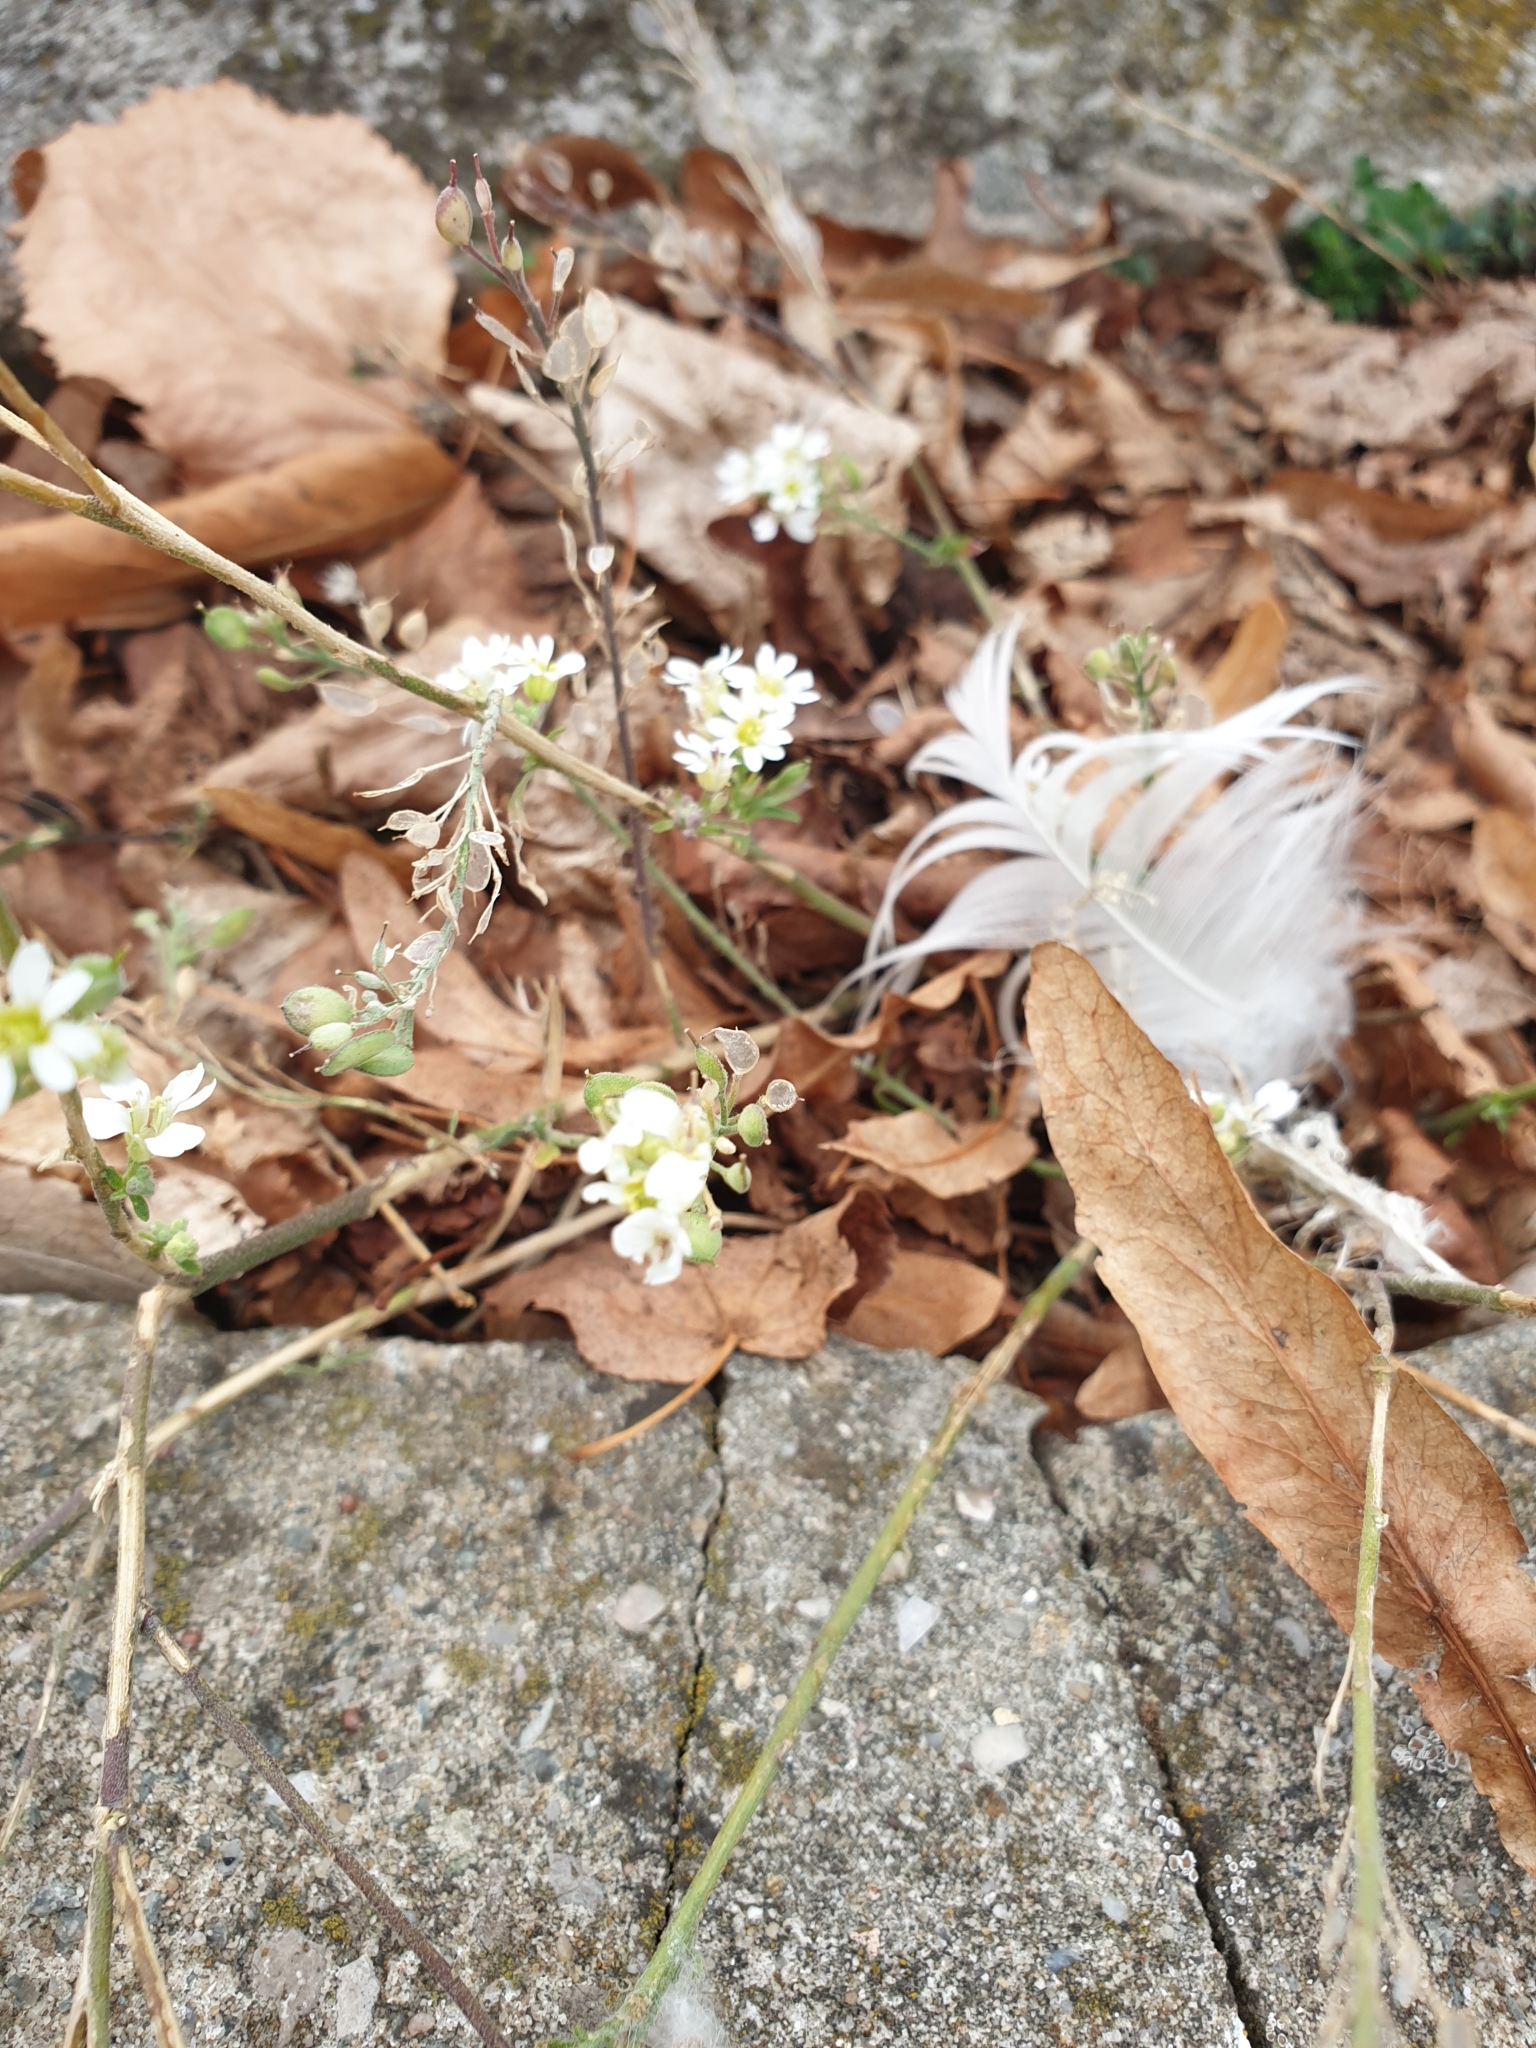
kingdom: Plantae
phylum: Tracheophyta
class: Magnoliopsida
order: Brassicales
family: Brassicaceae
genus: Berteroa
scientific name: Berteroa incana
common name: Hoary alison
